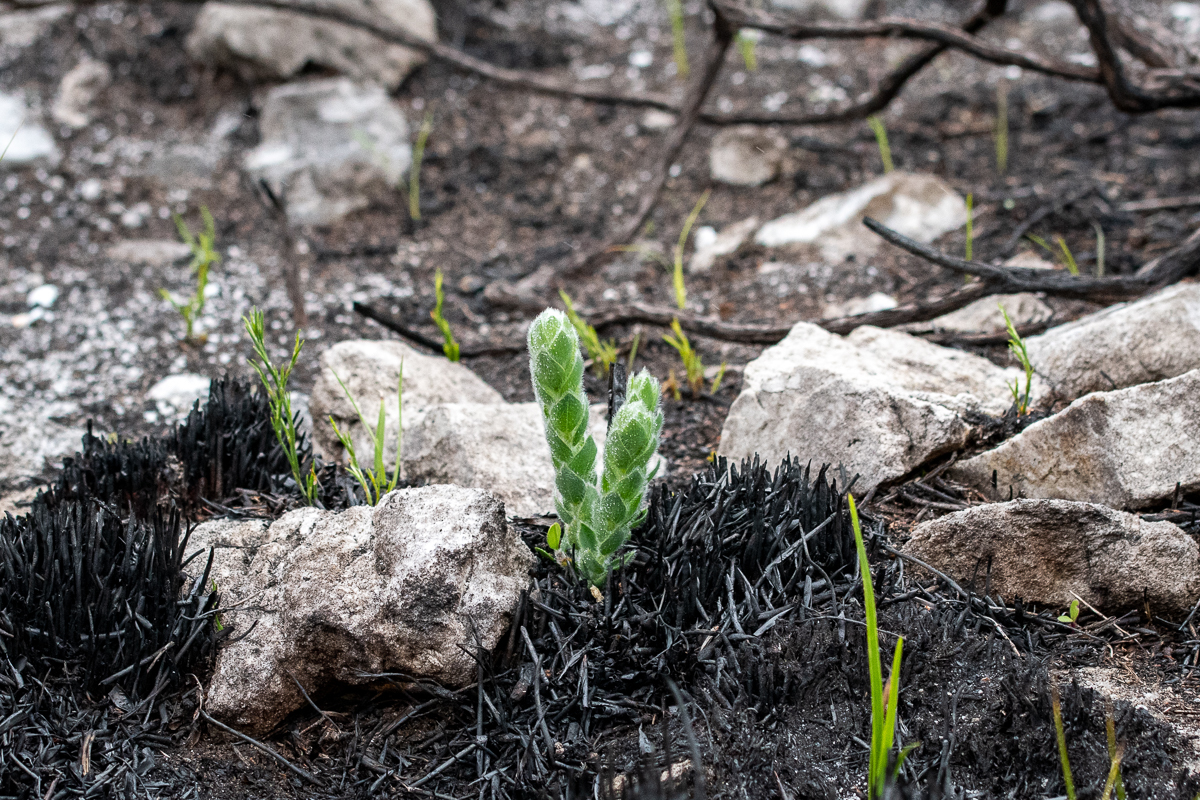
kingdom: Plantae
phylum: Tracheophyta
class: Magnoliopsida
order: Fabales
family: Fabaceae
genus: Liparia
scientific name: Liparia vestita
